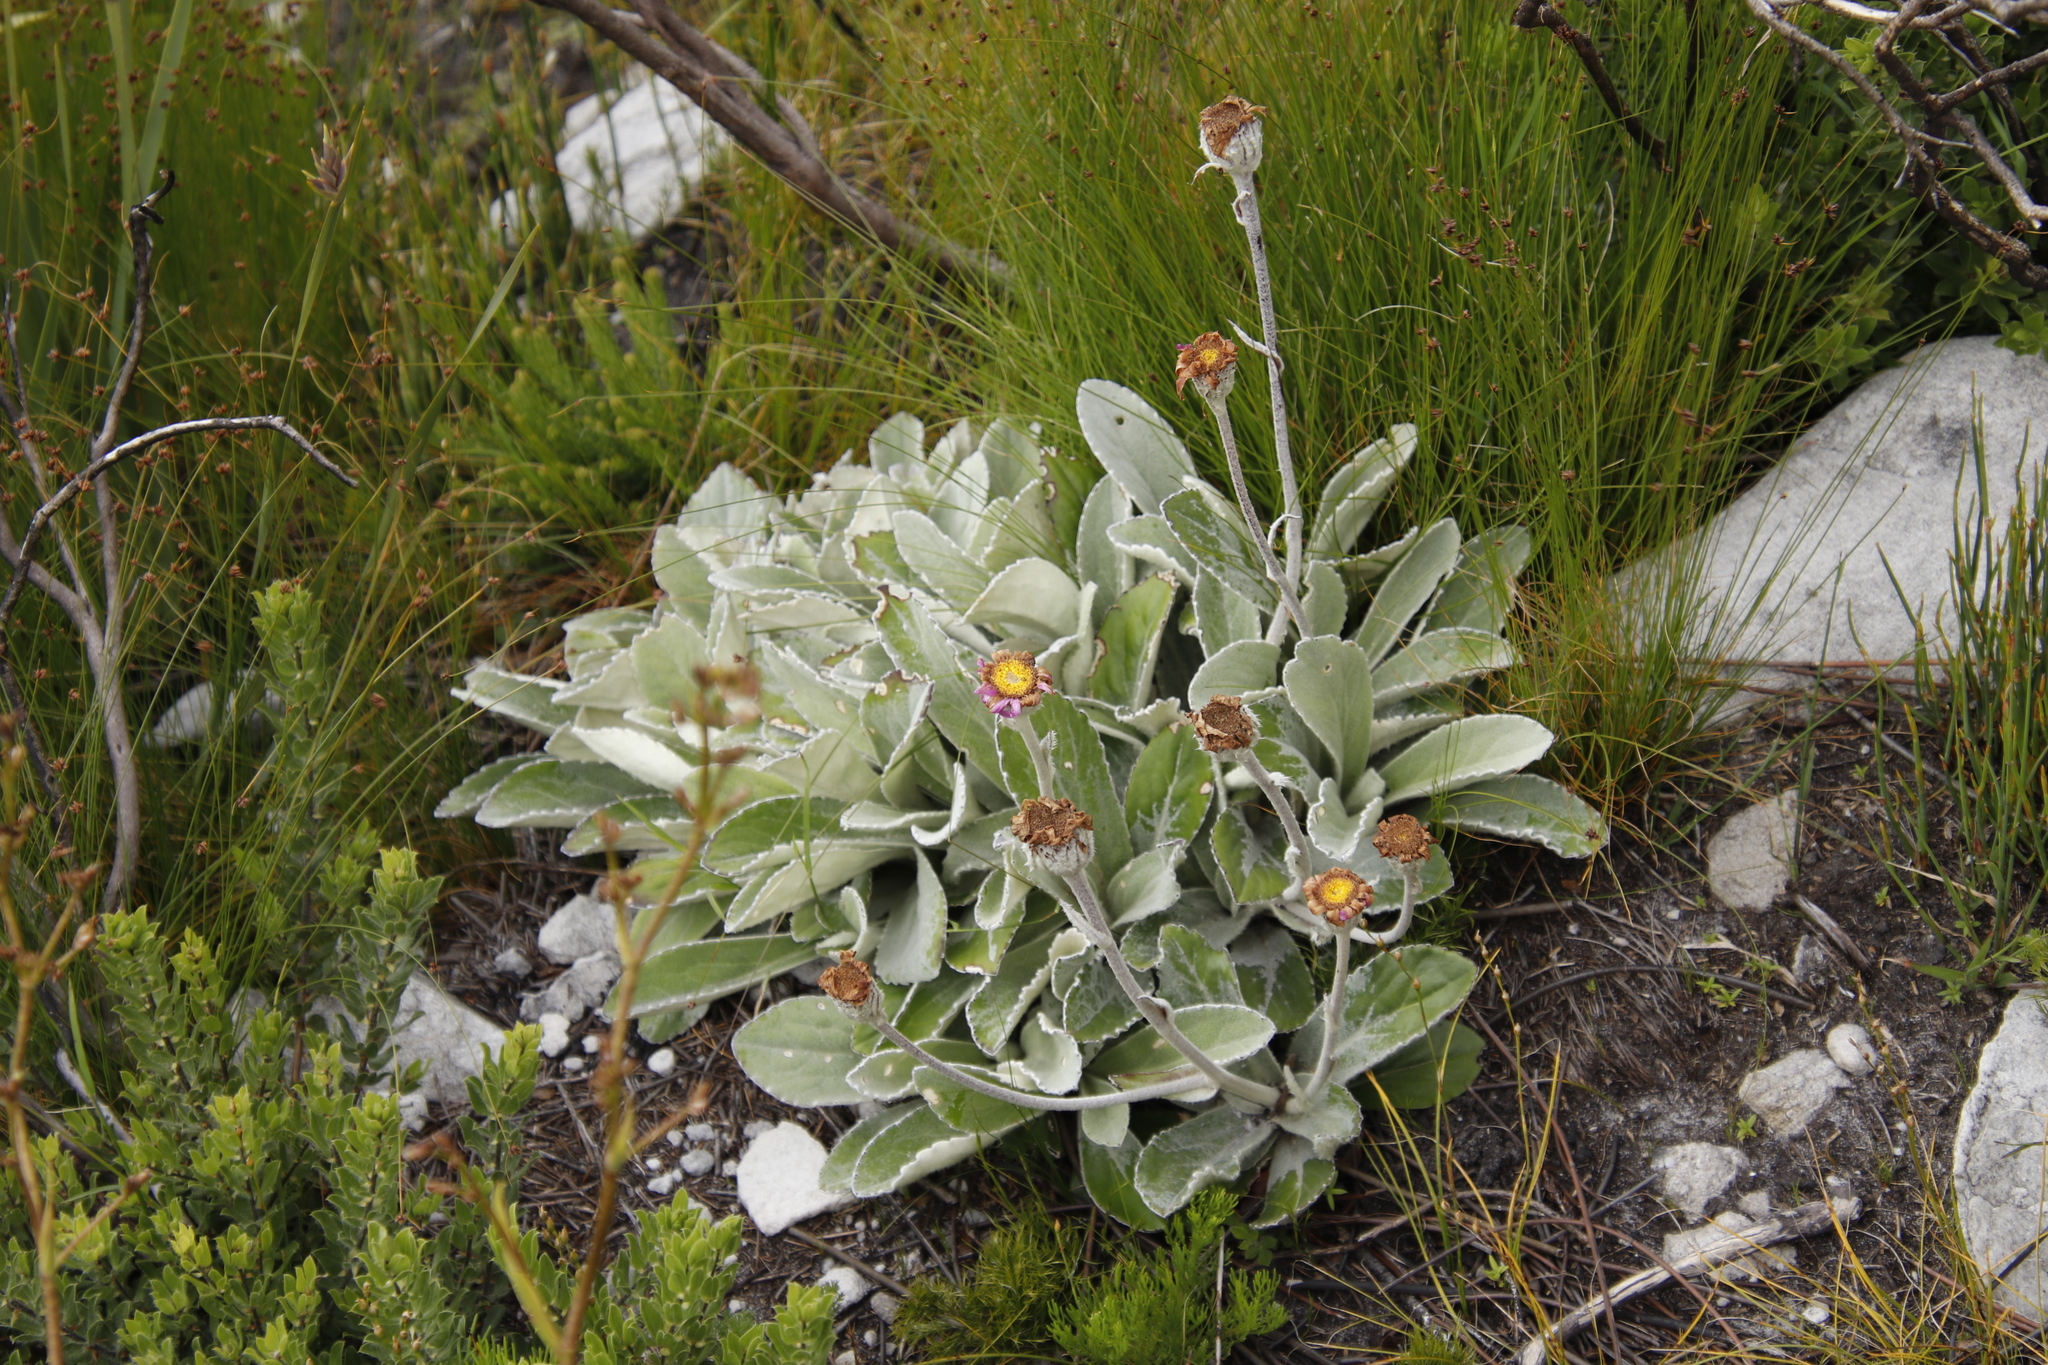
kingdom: Plantae
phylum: Tracheophyta
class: Magnoliopsida
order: Asterales
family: Asteraceae
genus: Mairia
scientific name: Mairia robusta
